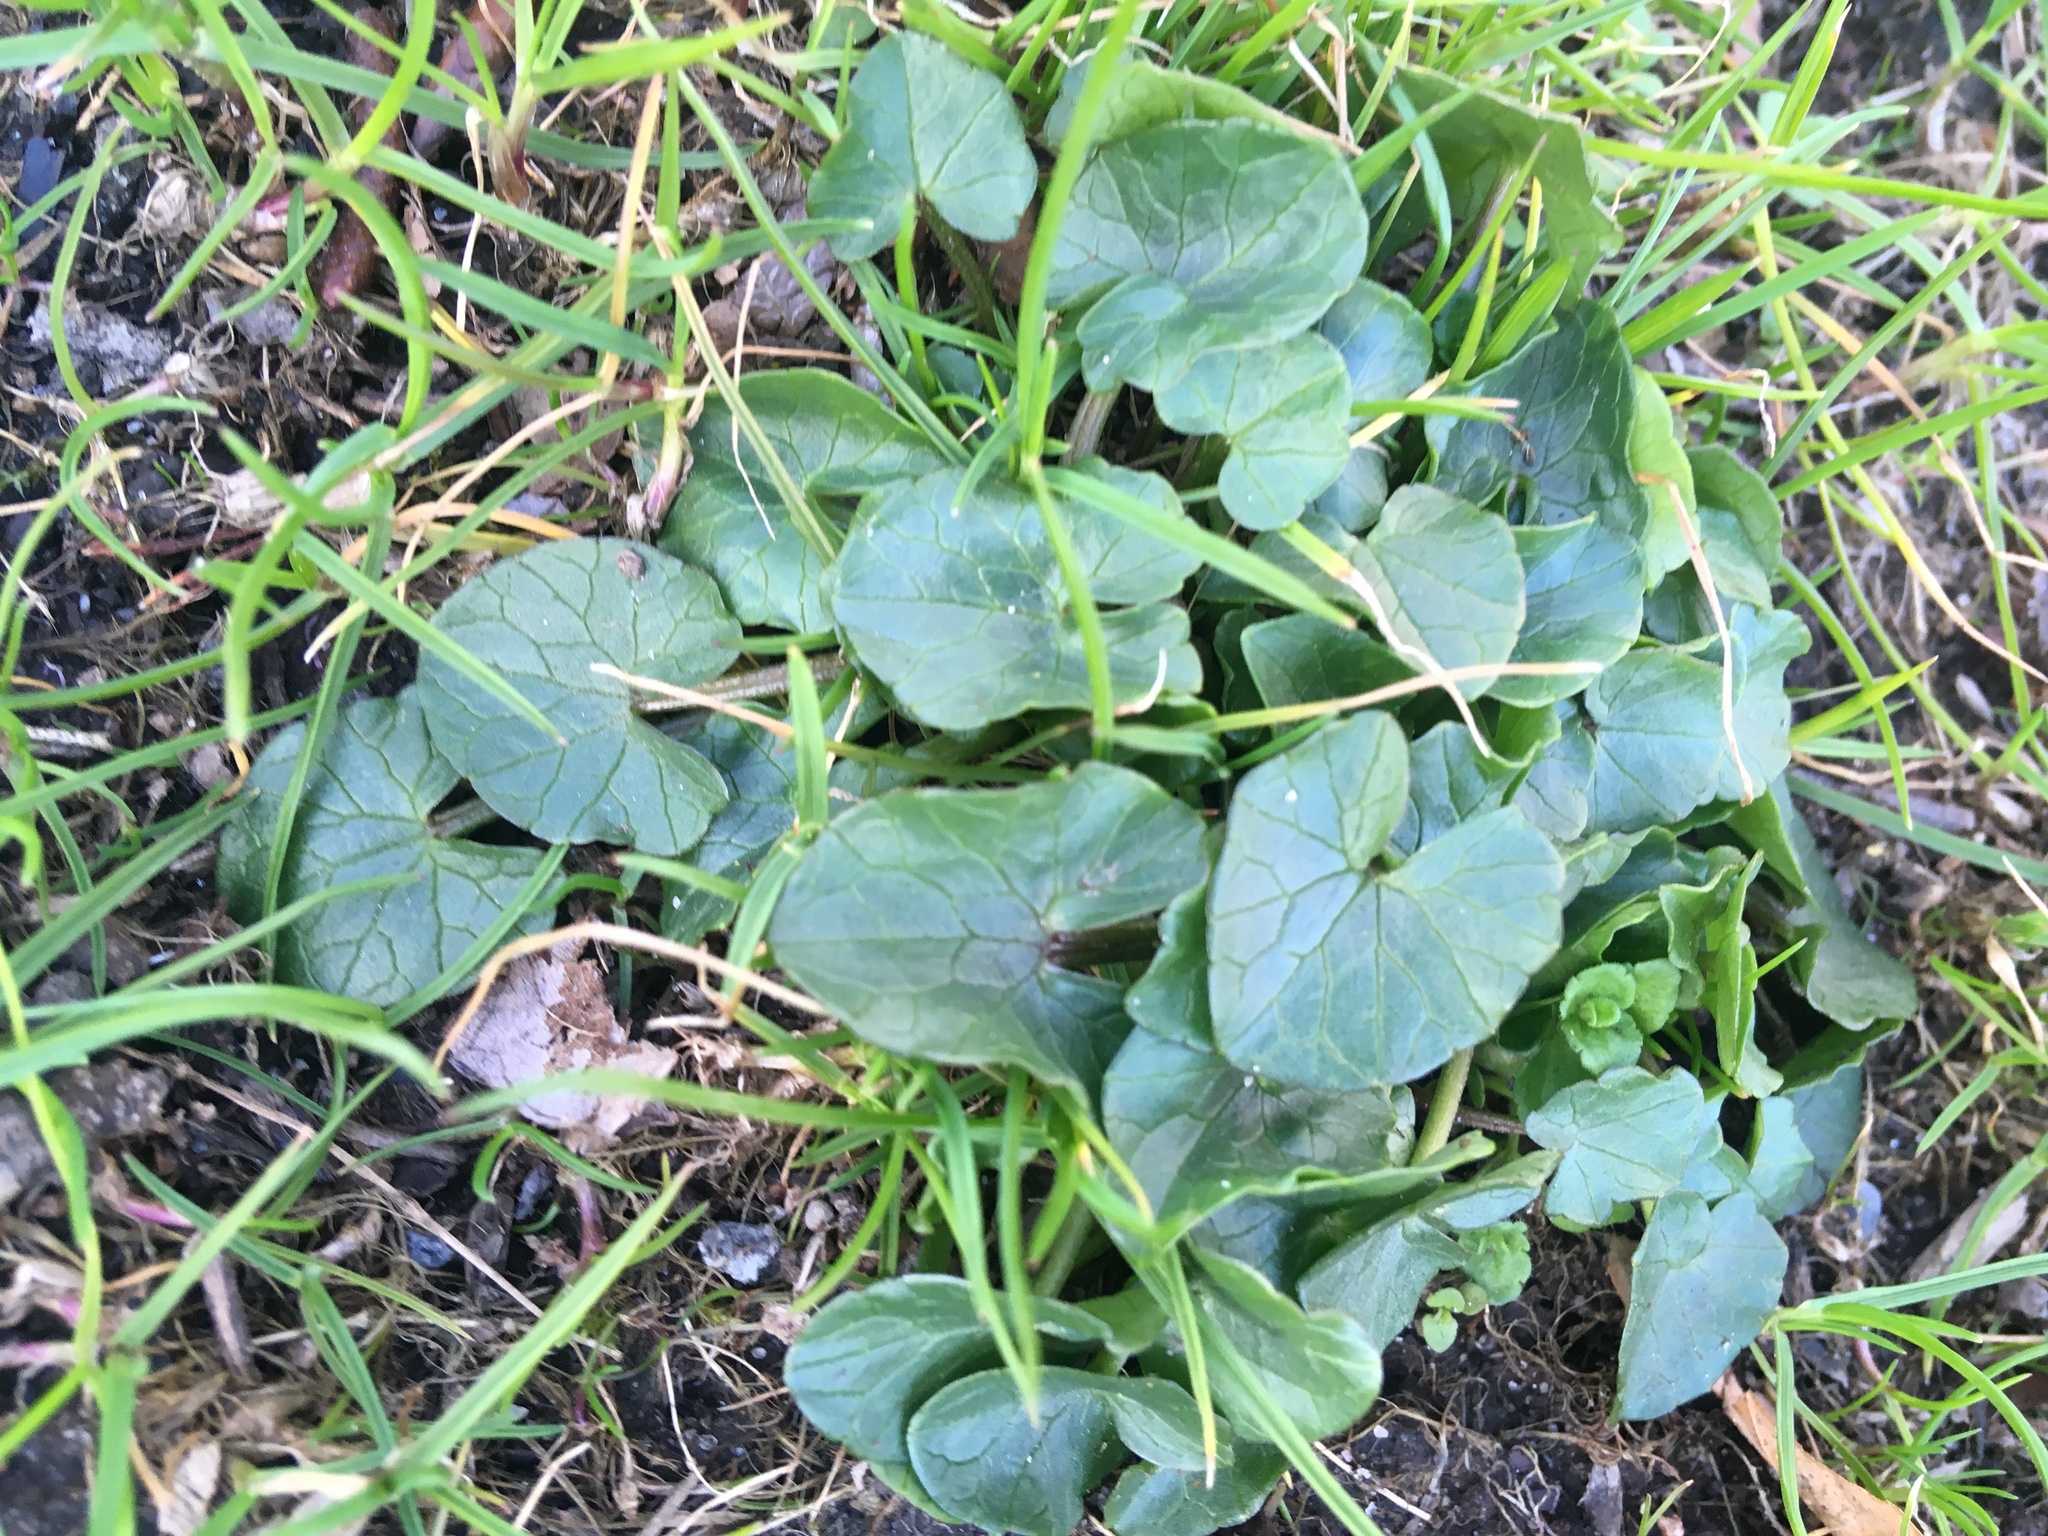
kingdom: Plantae
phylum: Tracheophyta
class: Magnoliopsida
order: Ranunculales
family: Ranunculaceae
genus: Ficaria
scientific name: Ficaria verna
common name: Lesser celandine
